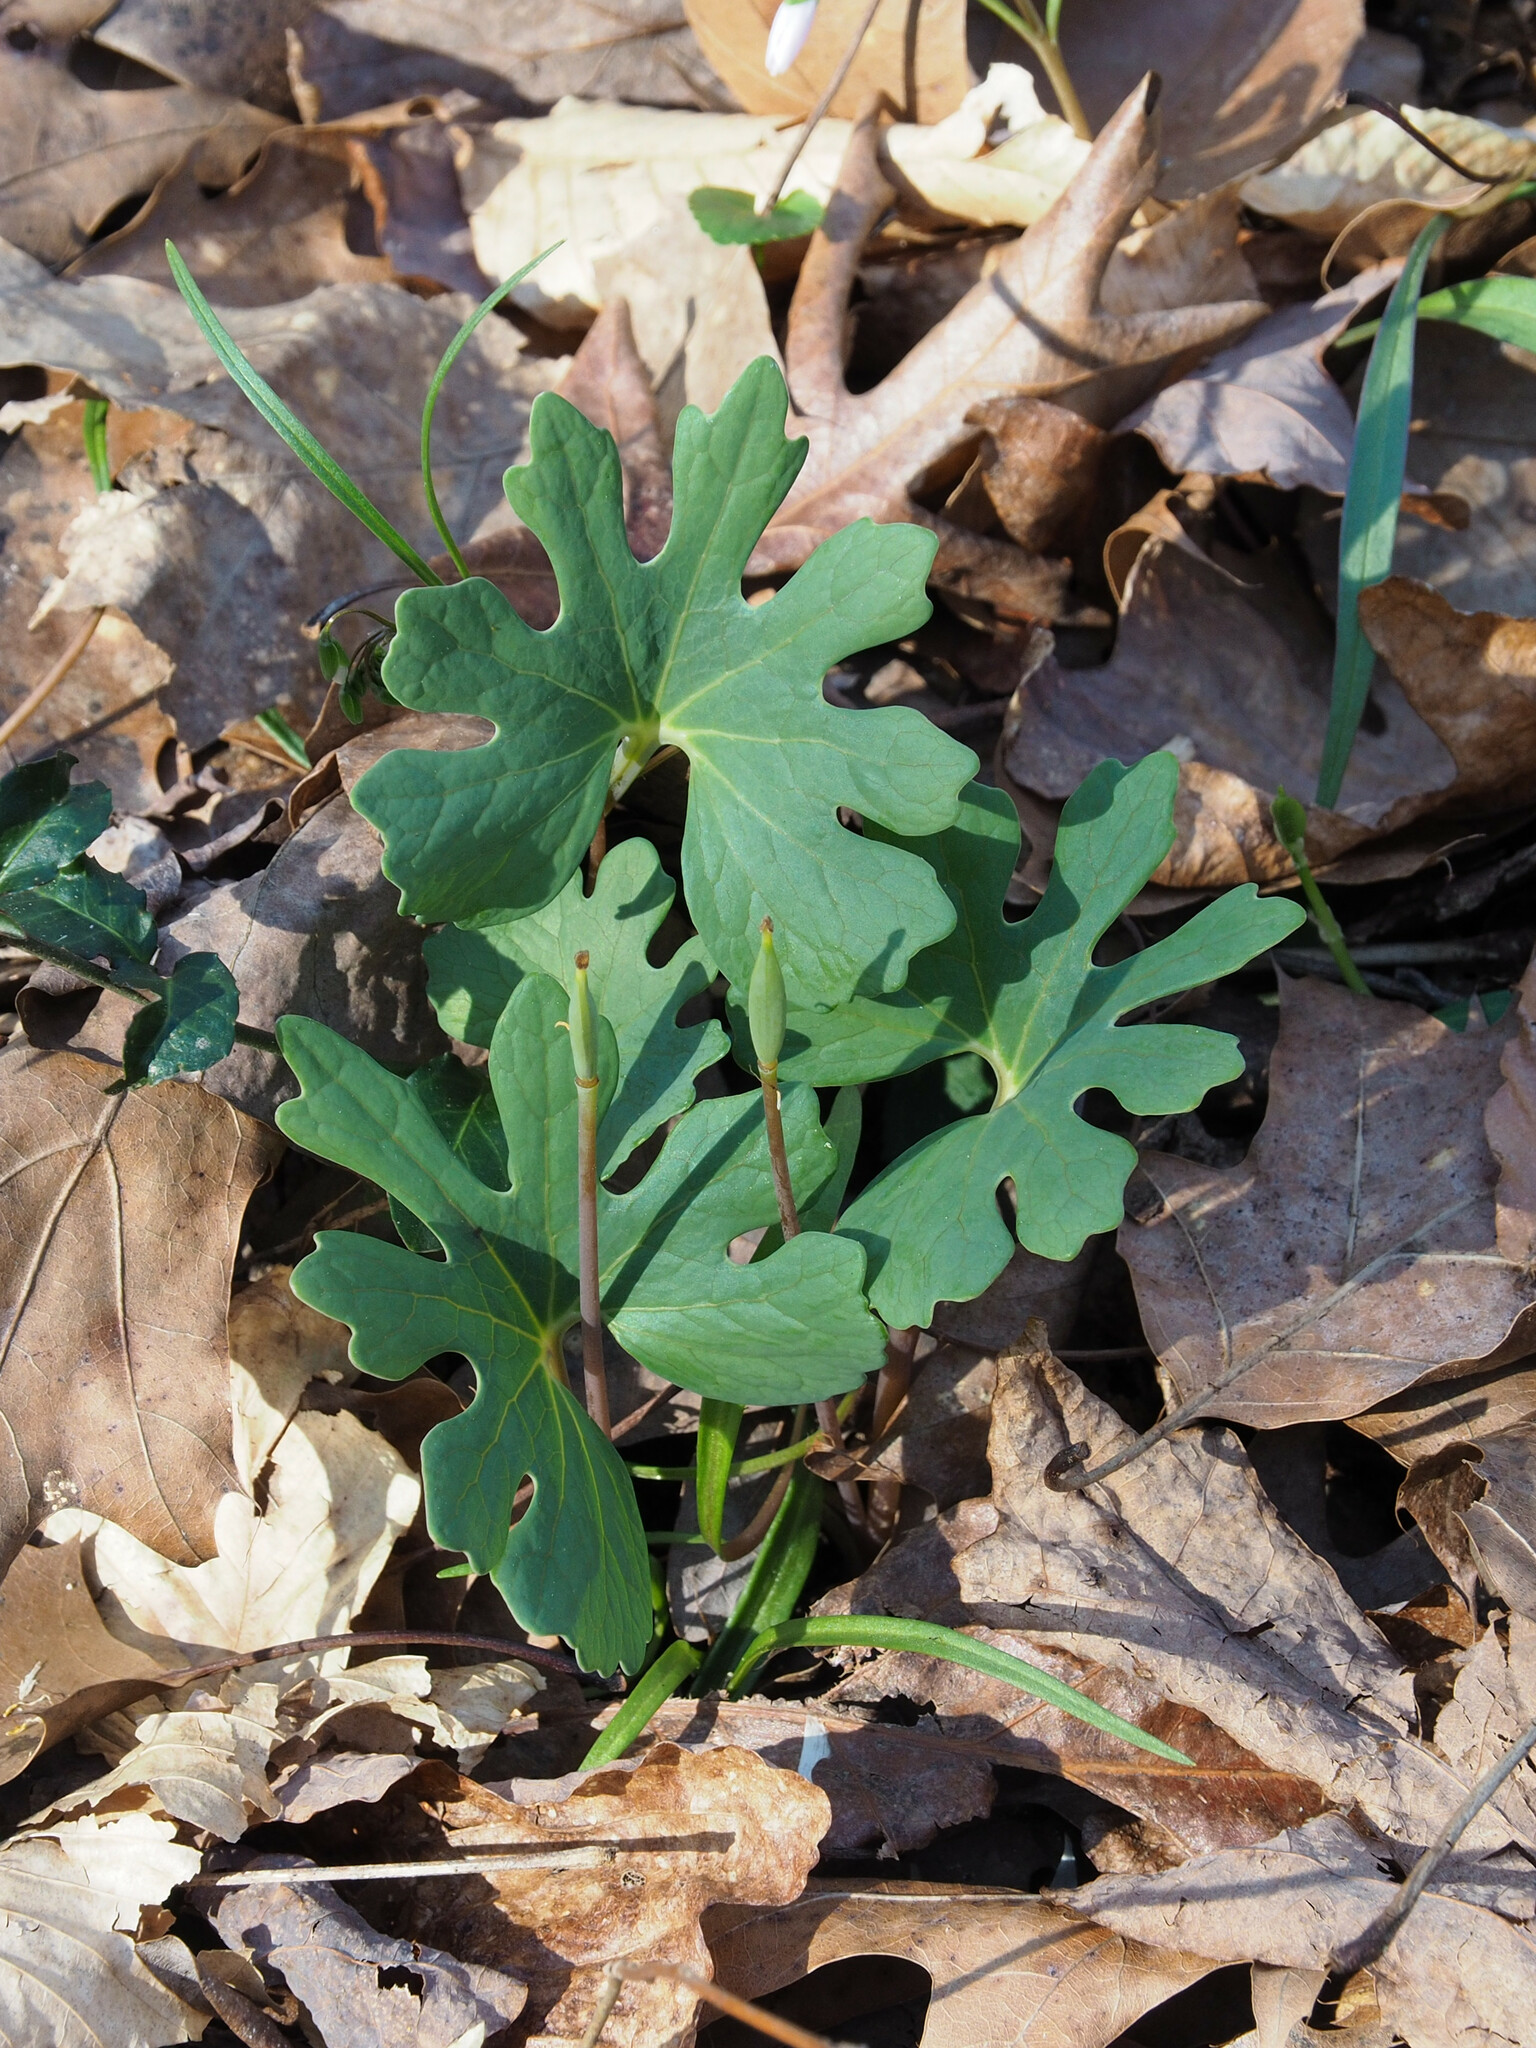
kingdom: Plantae
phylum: Tracheophyta
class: Magnoliopsida
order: Ranunculales
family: Papaveraceae
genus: Sanguinaria
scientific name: Sanguinaria canadensis
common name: Bloodroot
